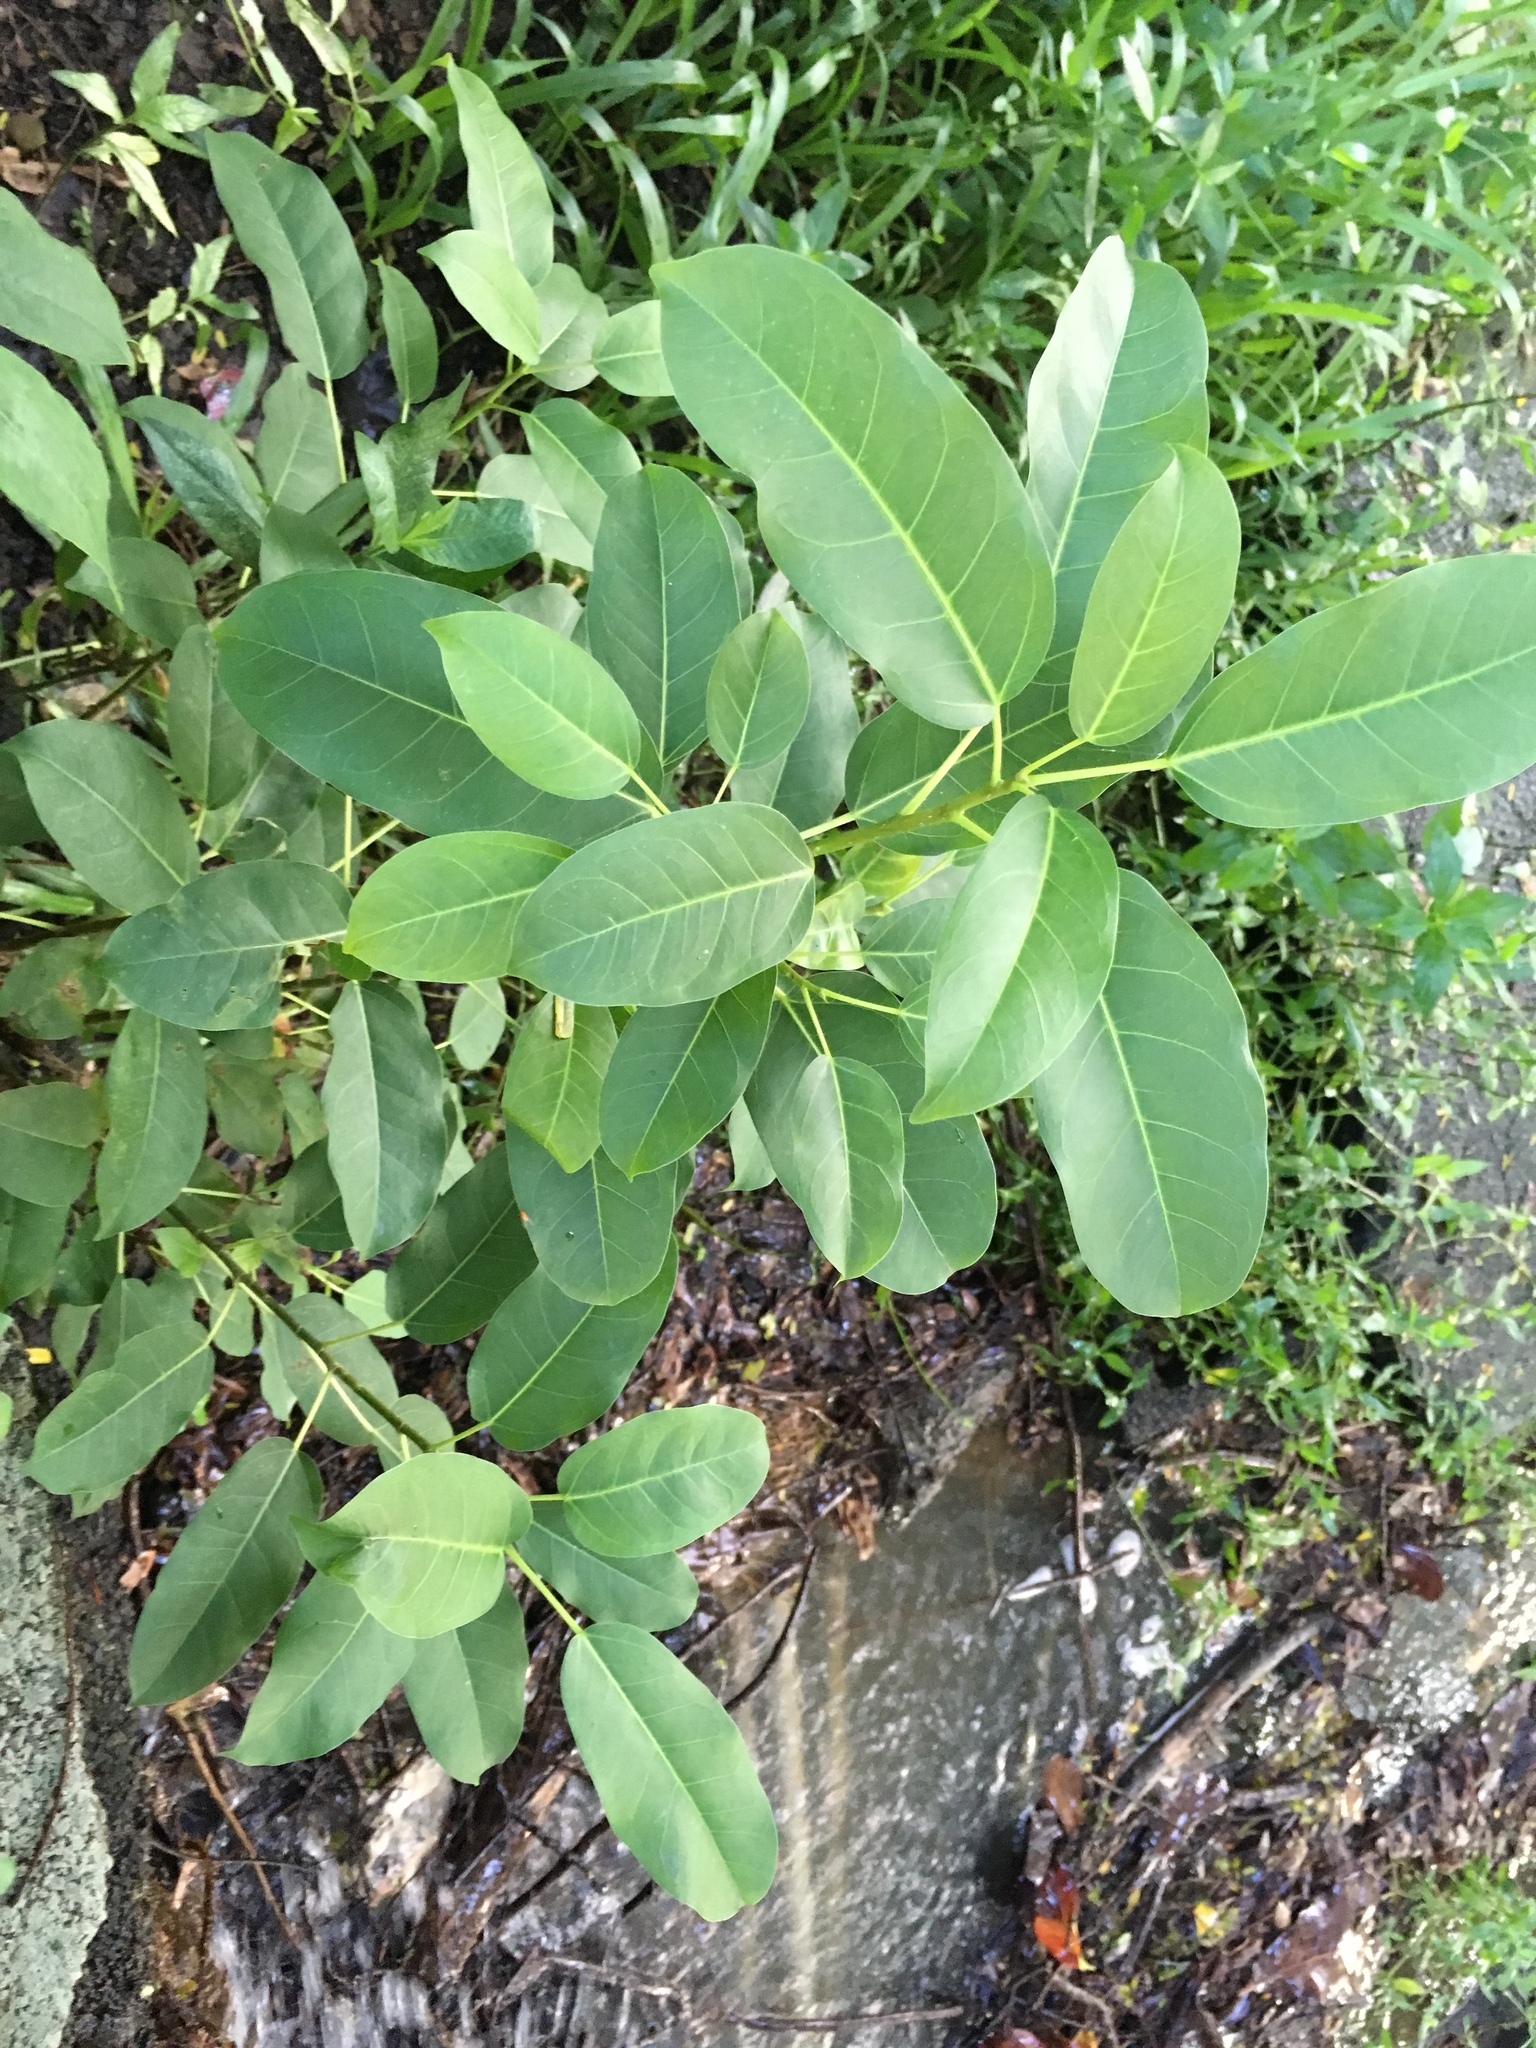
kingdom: Plantae
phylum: Tracheophyta
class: Magnoliopsida
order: Rosales
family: Moraceae
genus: Ficus
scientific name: Ficus subpisocarpa
